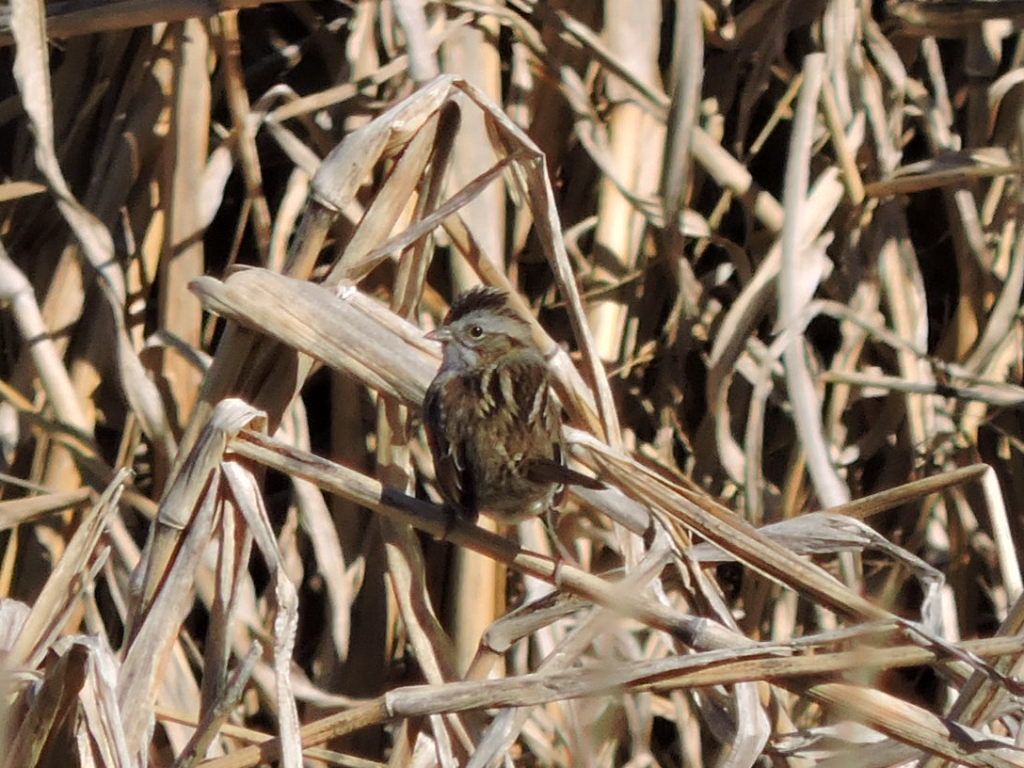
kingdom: Animalia
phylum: Chordata
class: Aves
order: Passeriformes
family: Passerellidae
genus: Melospiza
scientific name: Melospiza georgiana
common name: Swamp sparrow
